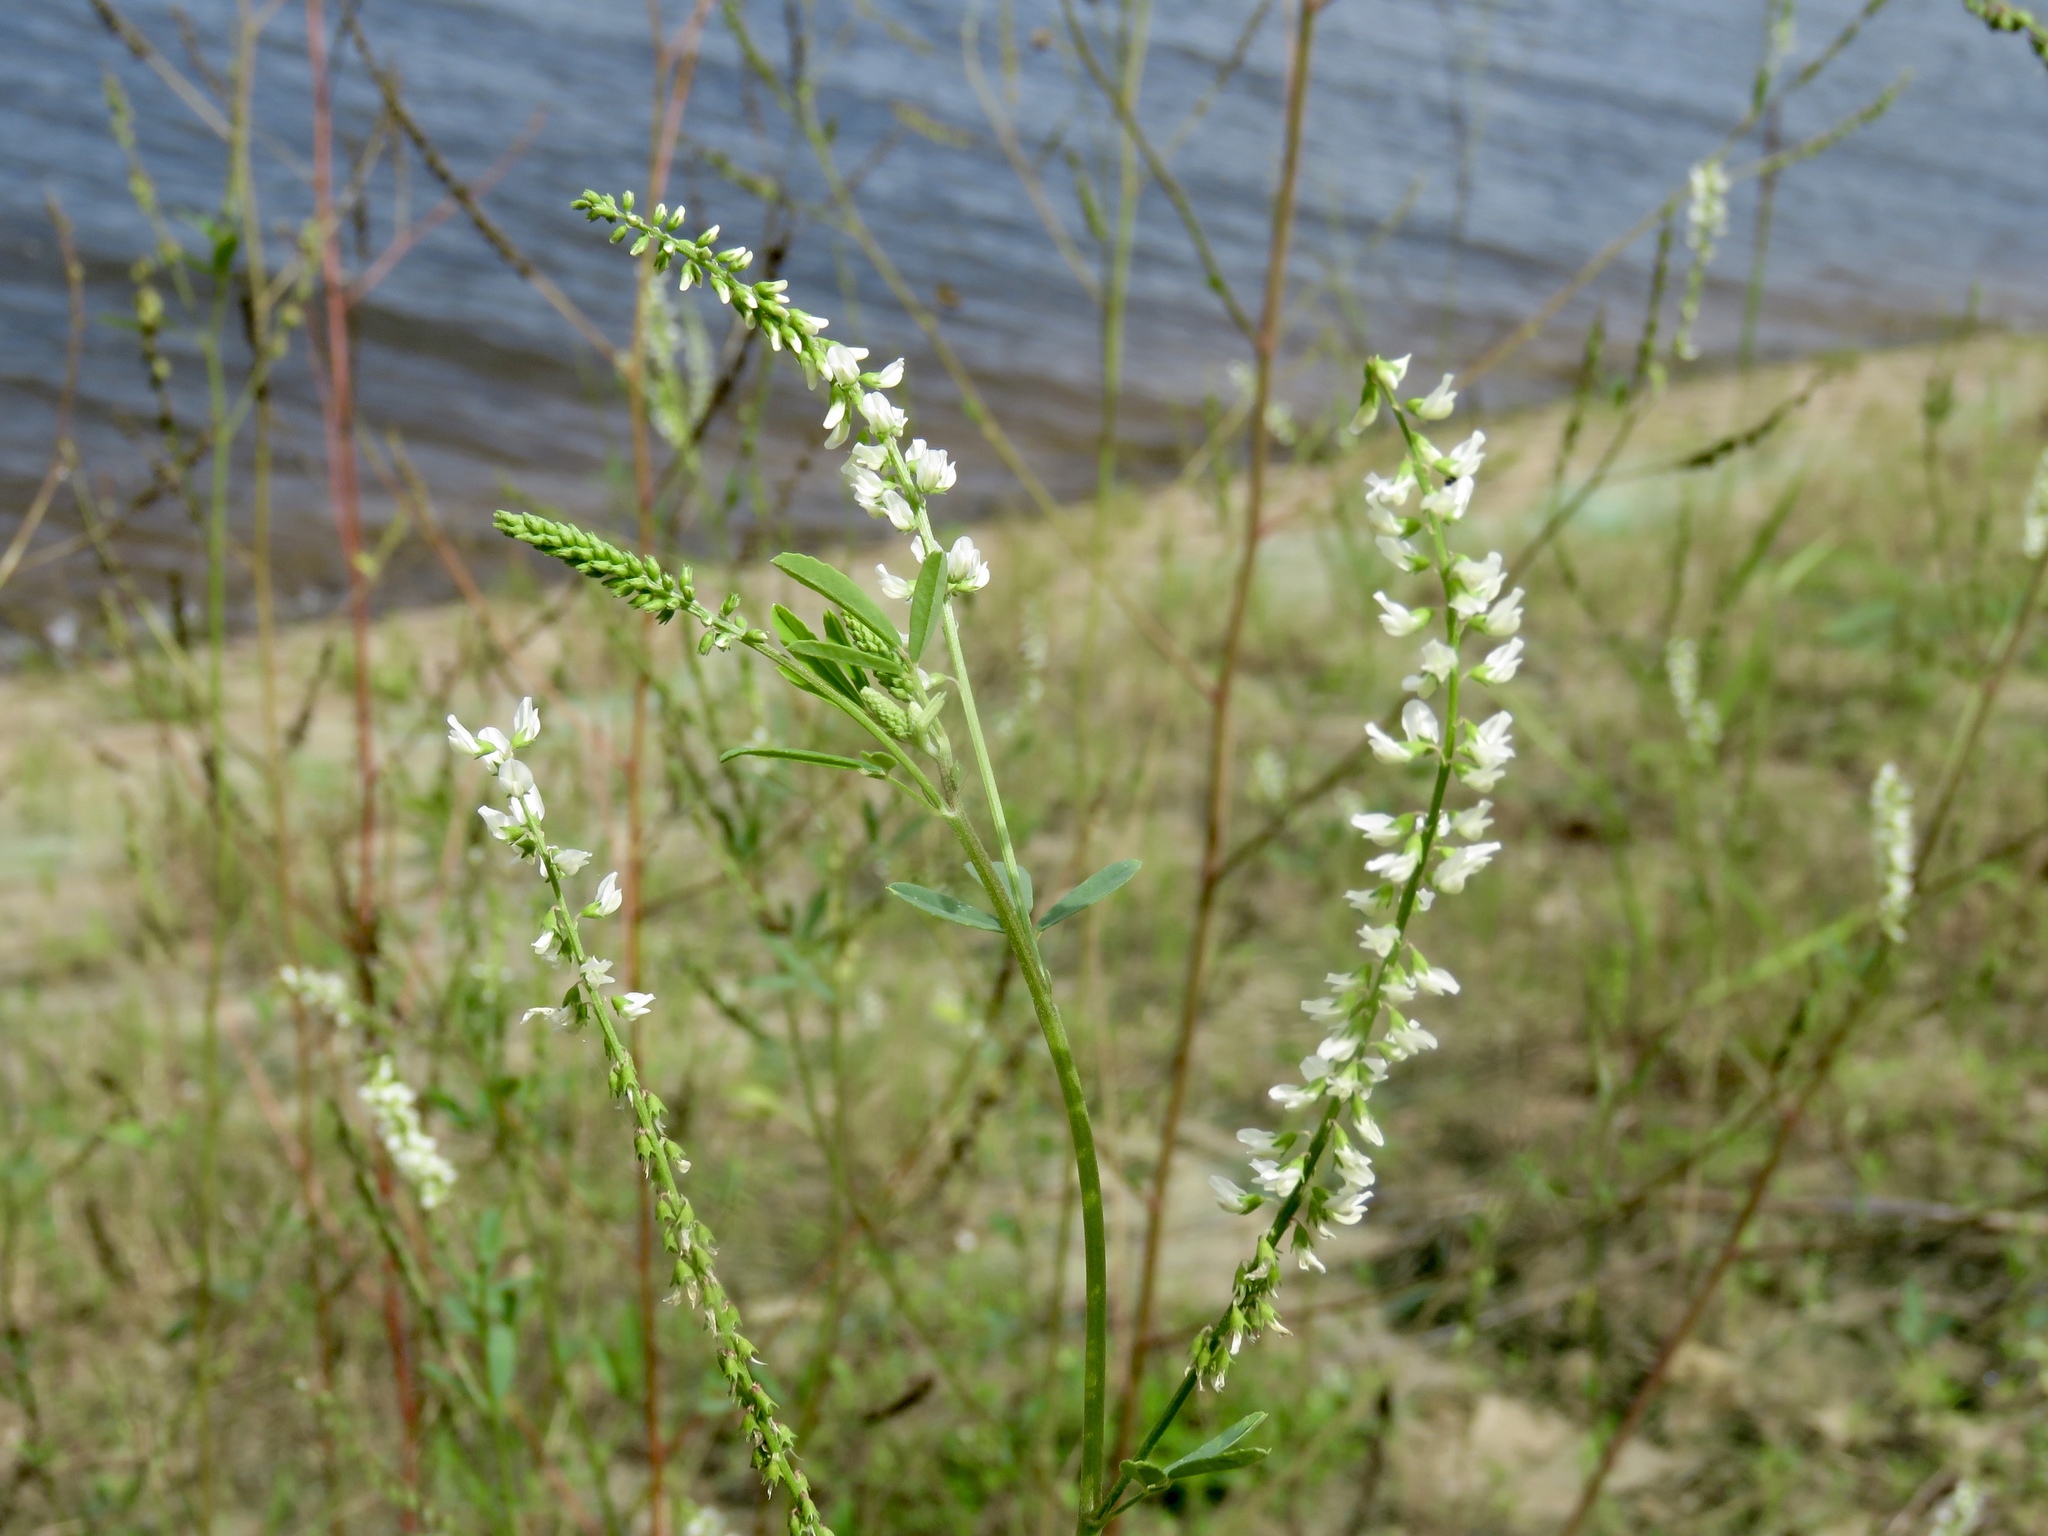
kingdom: Plantae
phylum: Tracheophyta
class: Magnoliopsida
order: Fabales
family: Fabaceae
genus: Melilotus
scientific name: Melilotus albus
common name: White melilot
